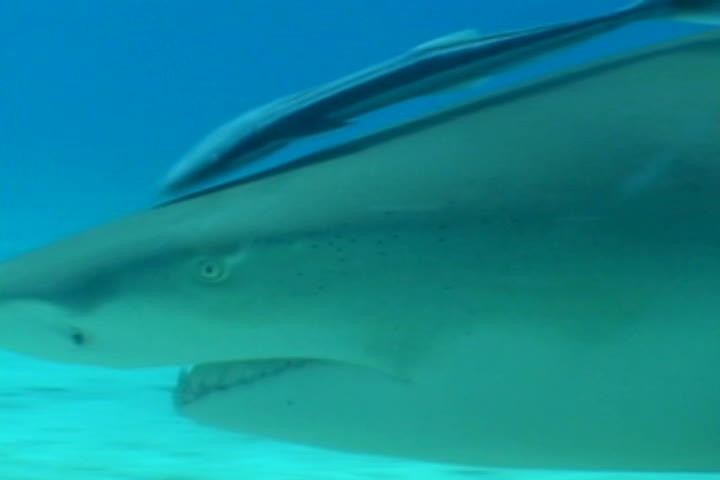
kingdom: Animalia
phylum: Chordata
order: Perciformes
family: Echeneidae
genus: Echeneis
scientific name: Echeneis naucrates
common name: Sharksucker
